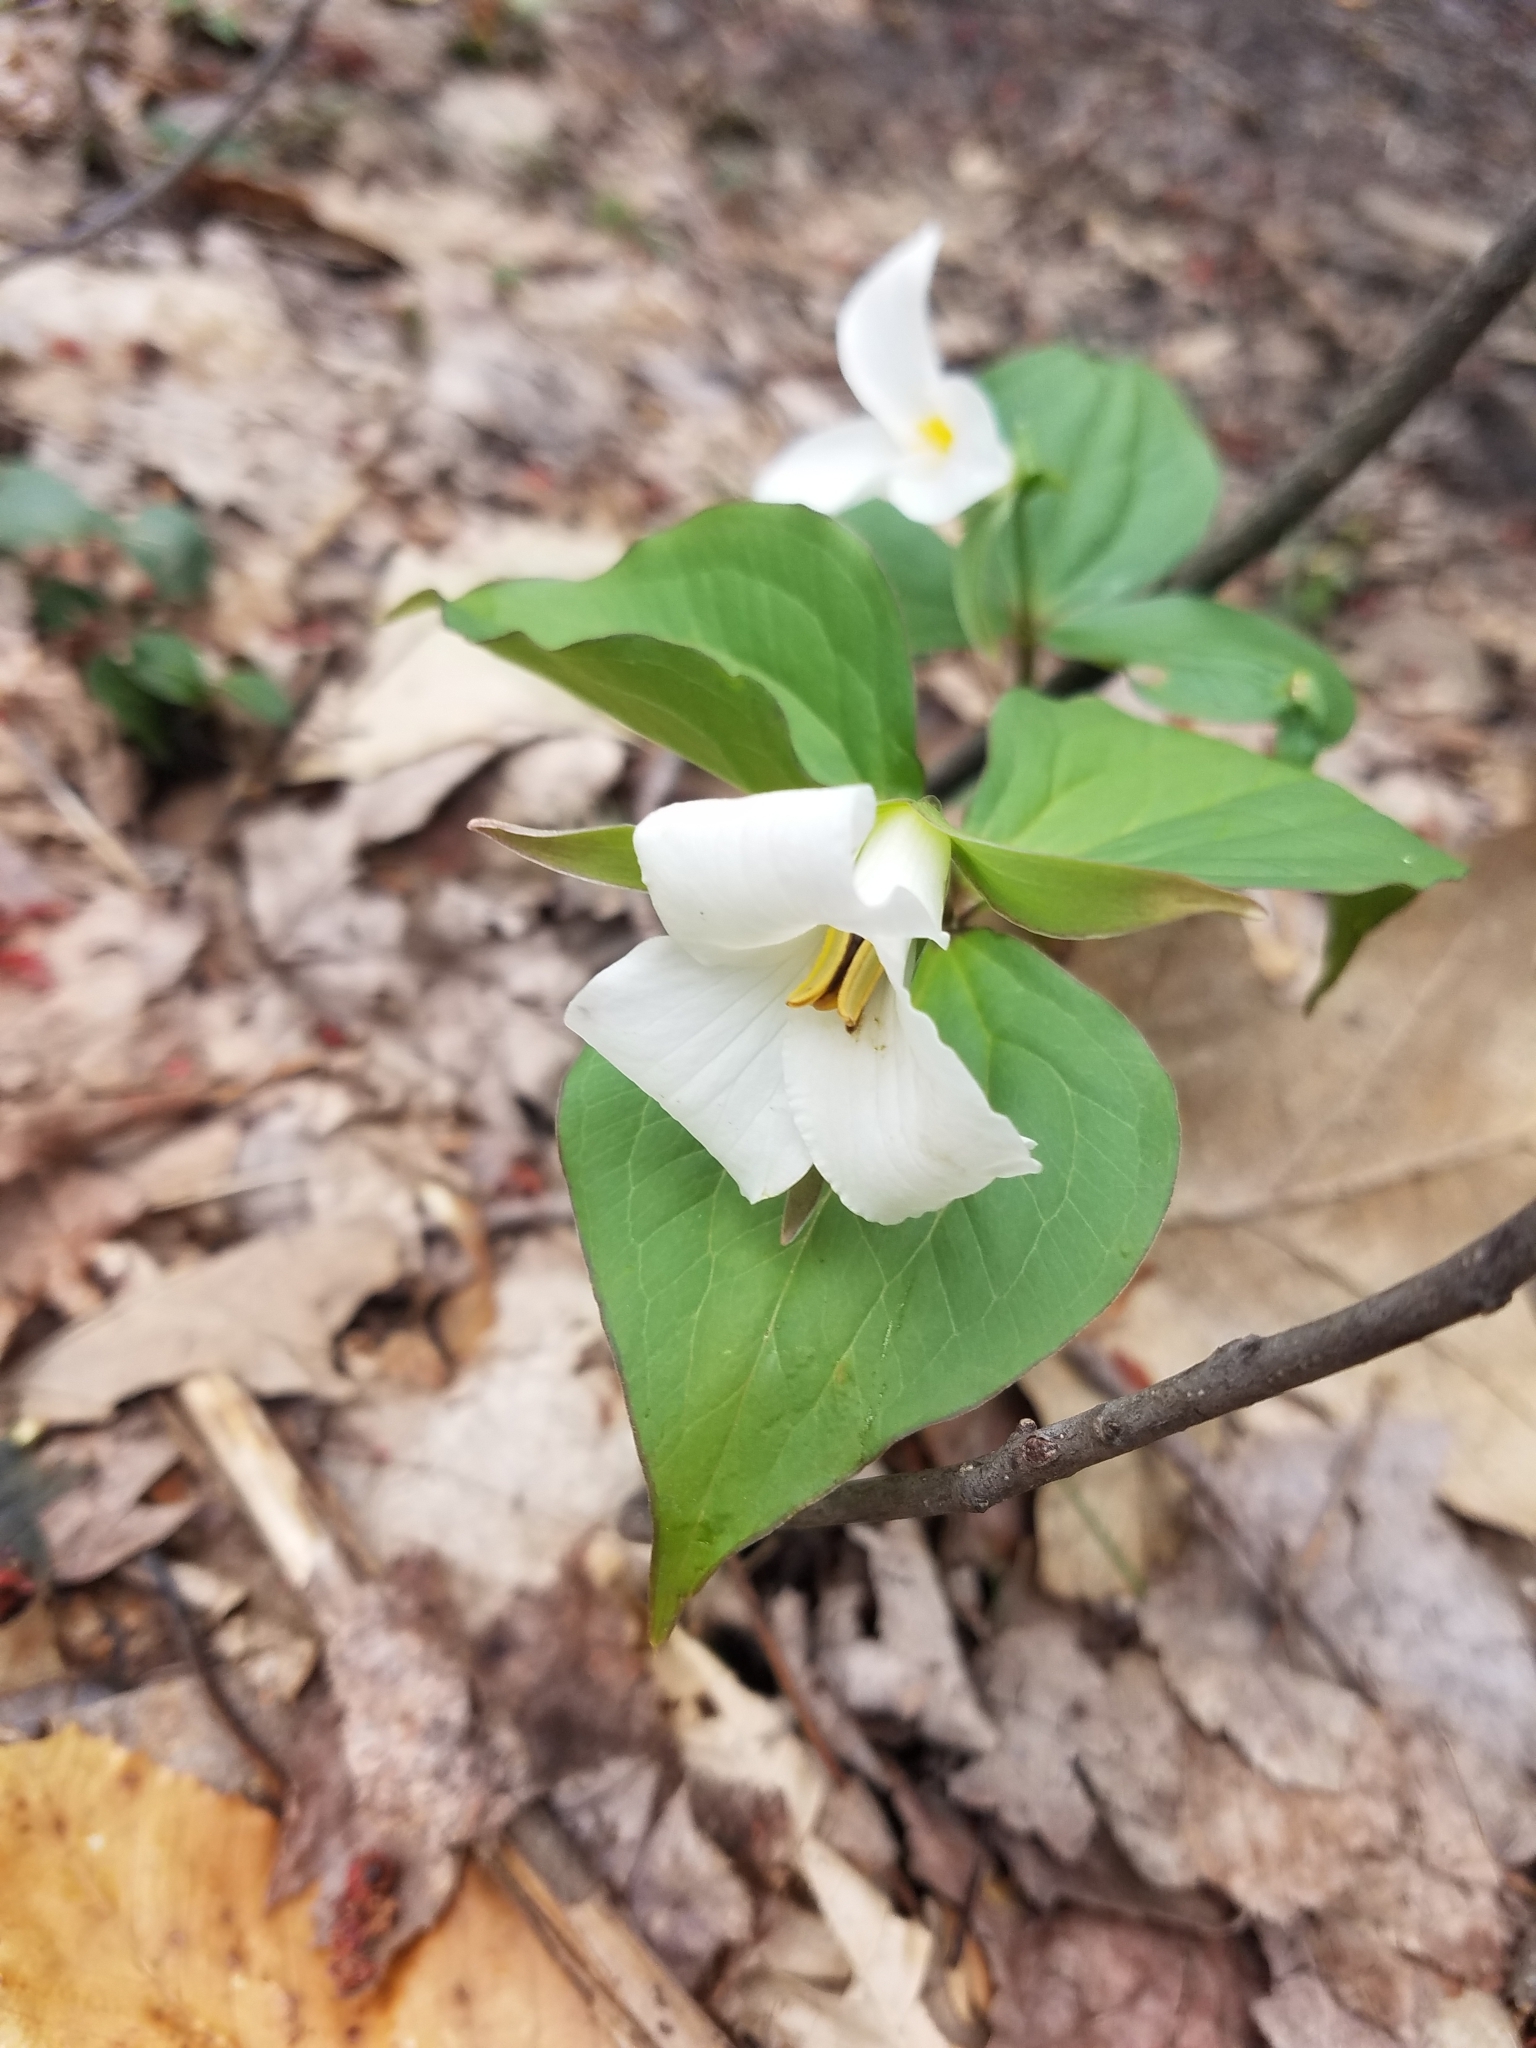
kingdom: Plantae
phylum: Tracheophyta
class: Liliopsida
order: Liliales
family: Melanthiaceae
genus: Trillium
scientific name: Trillium grandiflorum
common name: Great white trillium
